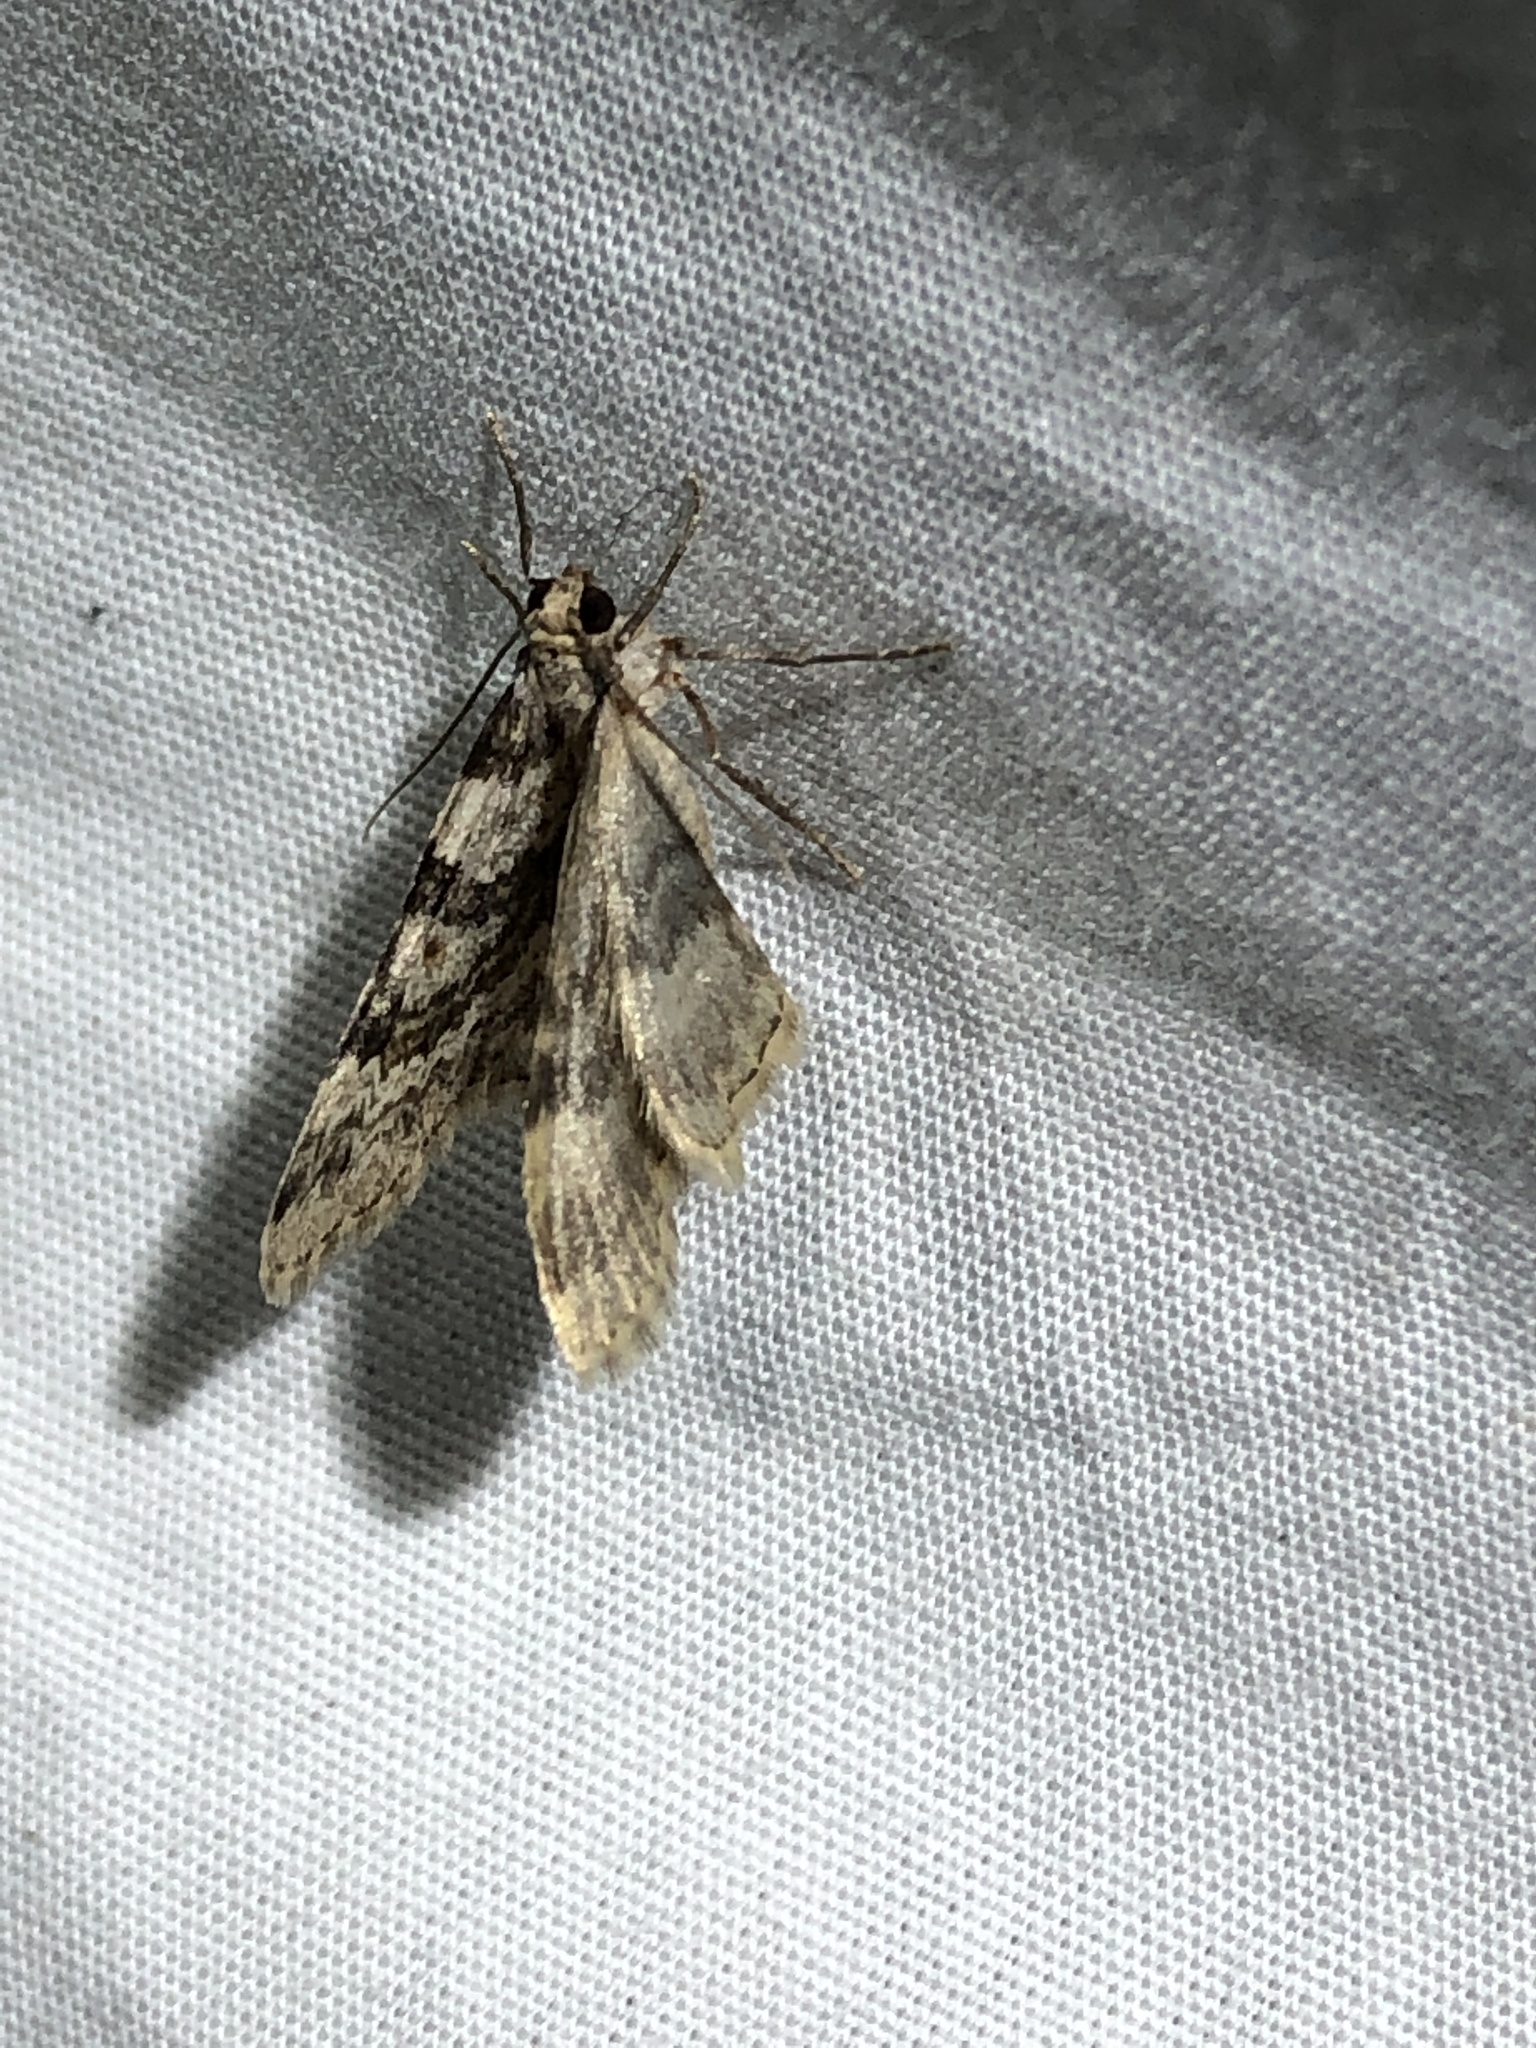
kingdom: Animalia
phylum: Arthropoda
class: Insecta
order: Lepidoptera
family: Geometridae
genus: Zenophleps
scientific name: Zenophleps obscurata
